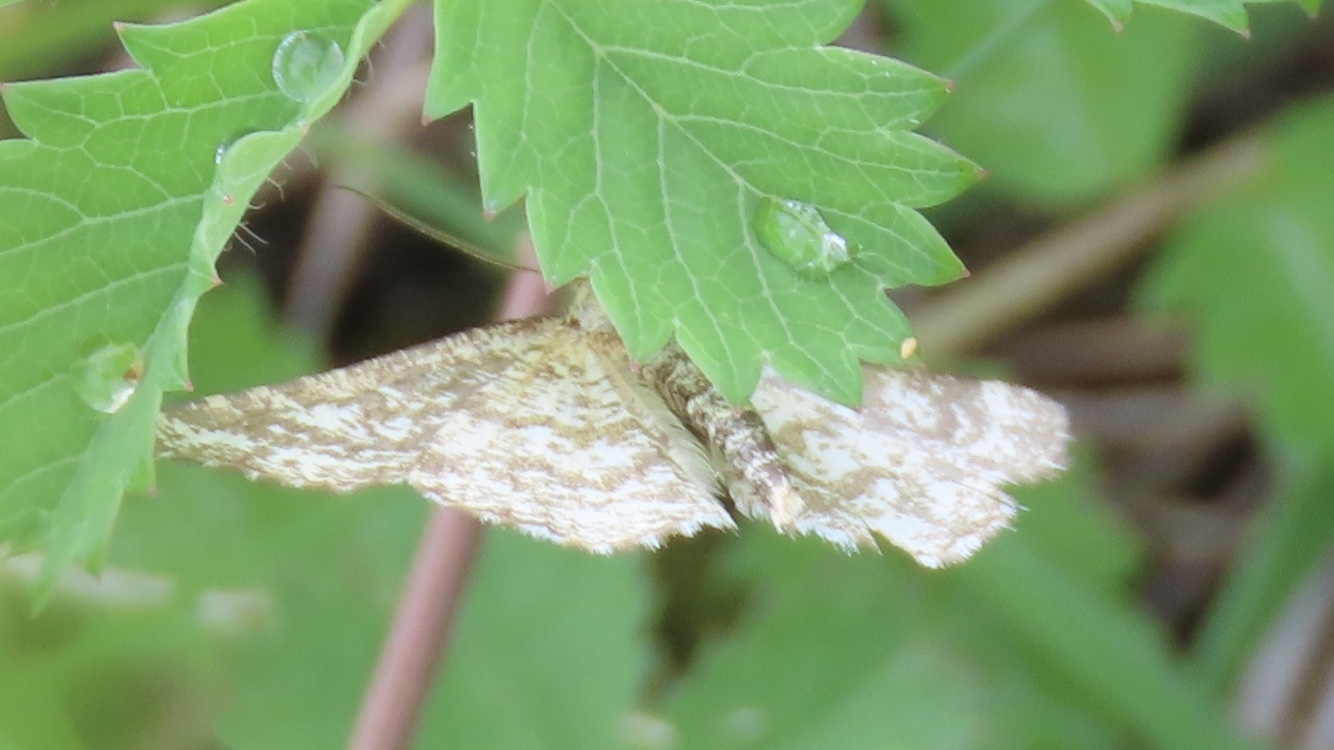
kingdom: Animalia
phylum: Arthropoda
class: Insecta
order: Lepidoptera
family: Geometridae
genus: Ematurga
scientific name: Ematurga atomaria
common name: Common heath
